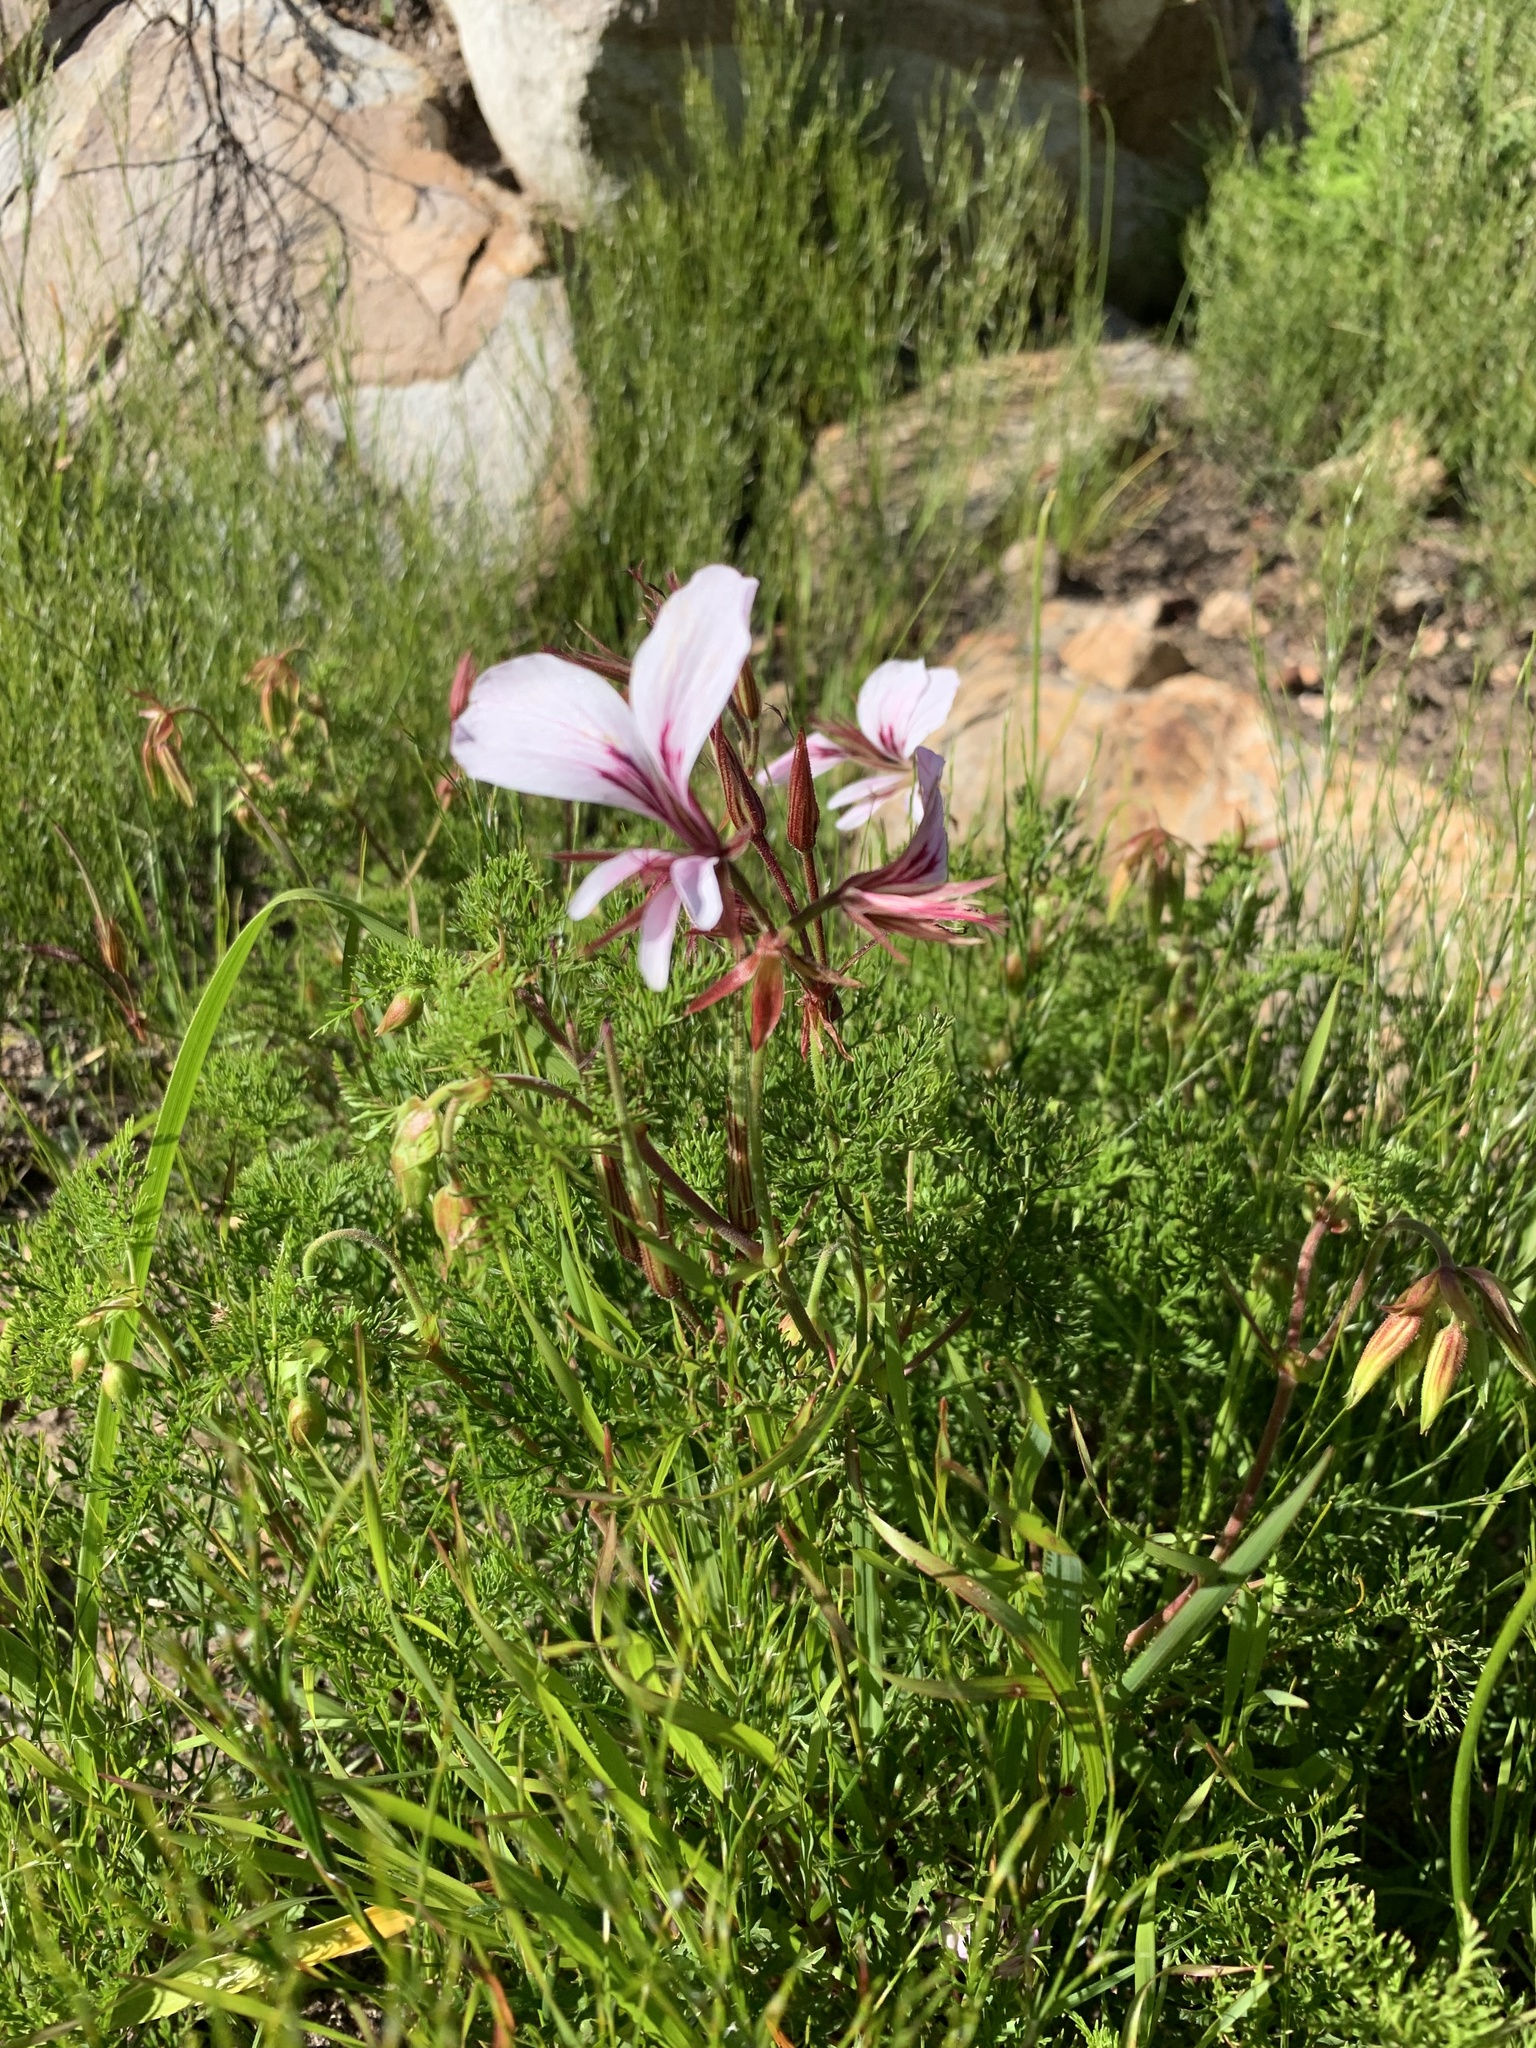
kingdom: Plantae
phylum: Tracheophyta
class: Magnoliopsida
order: Geraniales
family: Geraniaceae
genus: Pelargonium
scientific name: Pelargonium myrrhifolium
